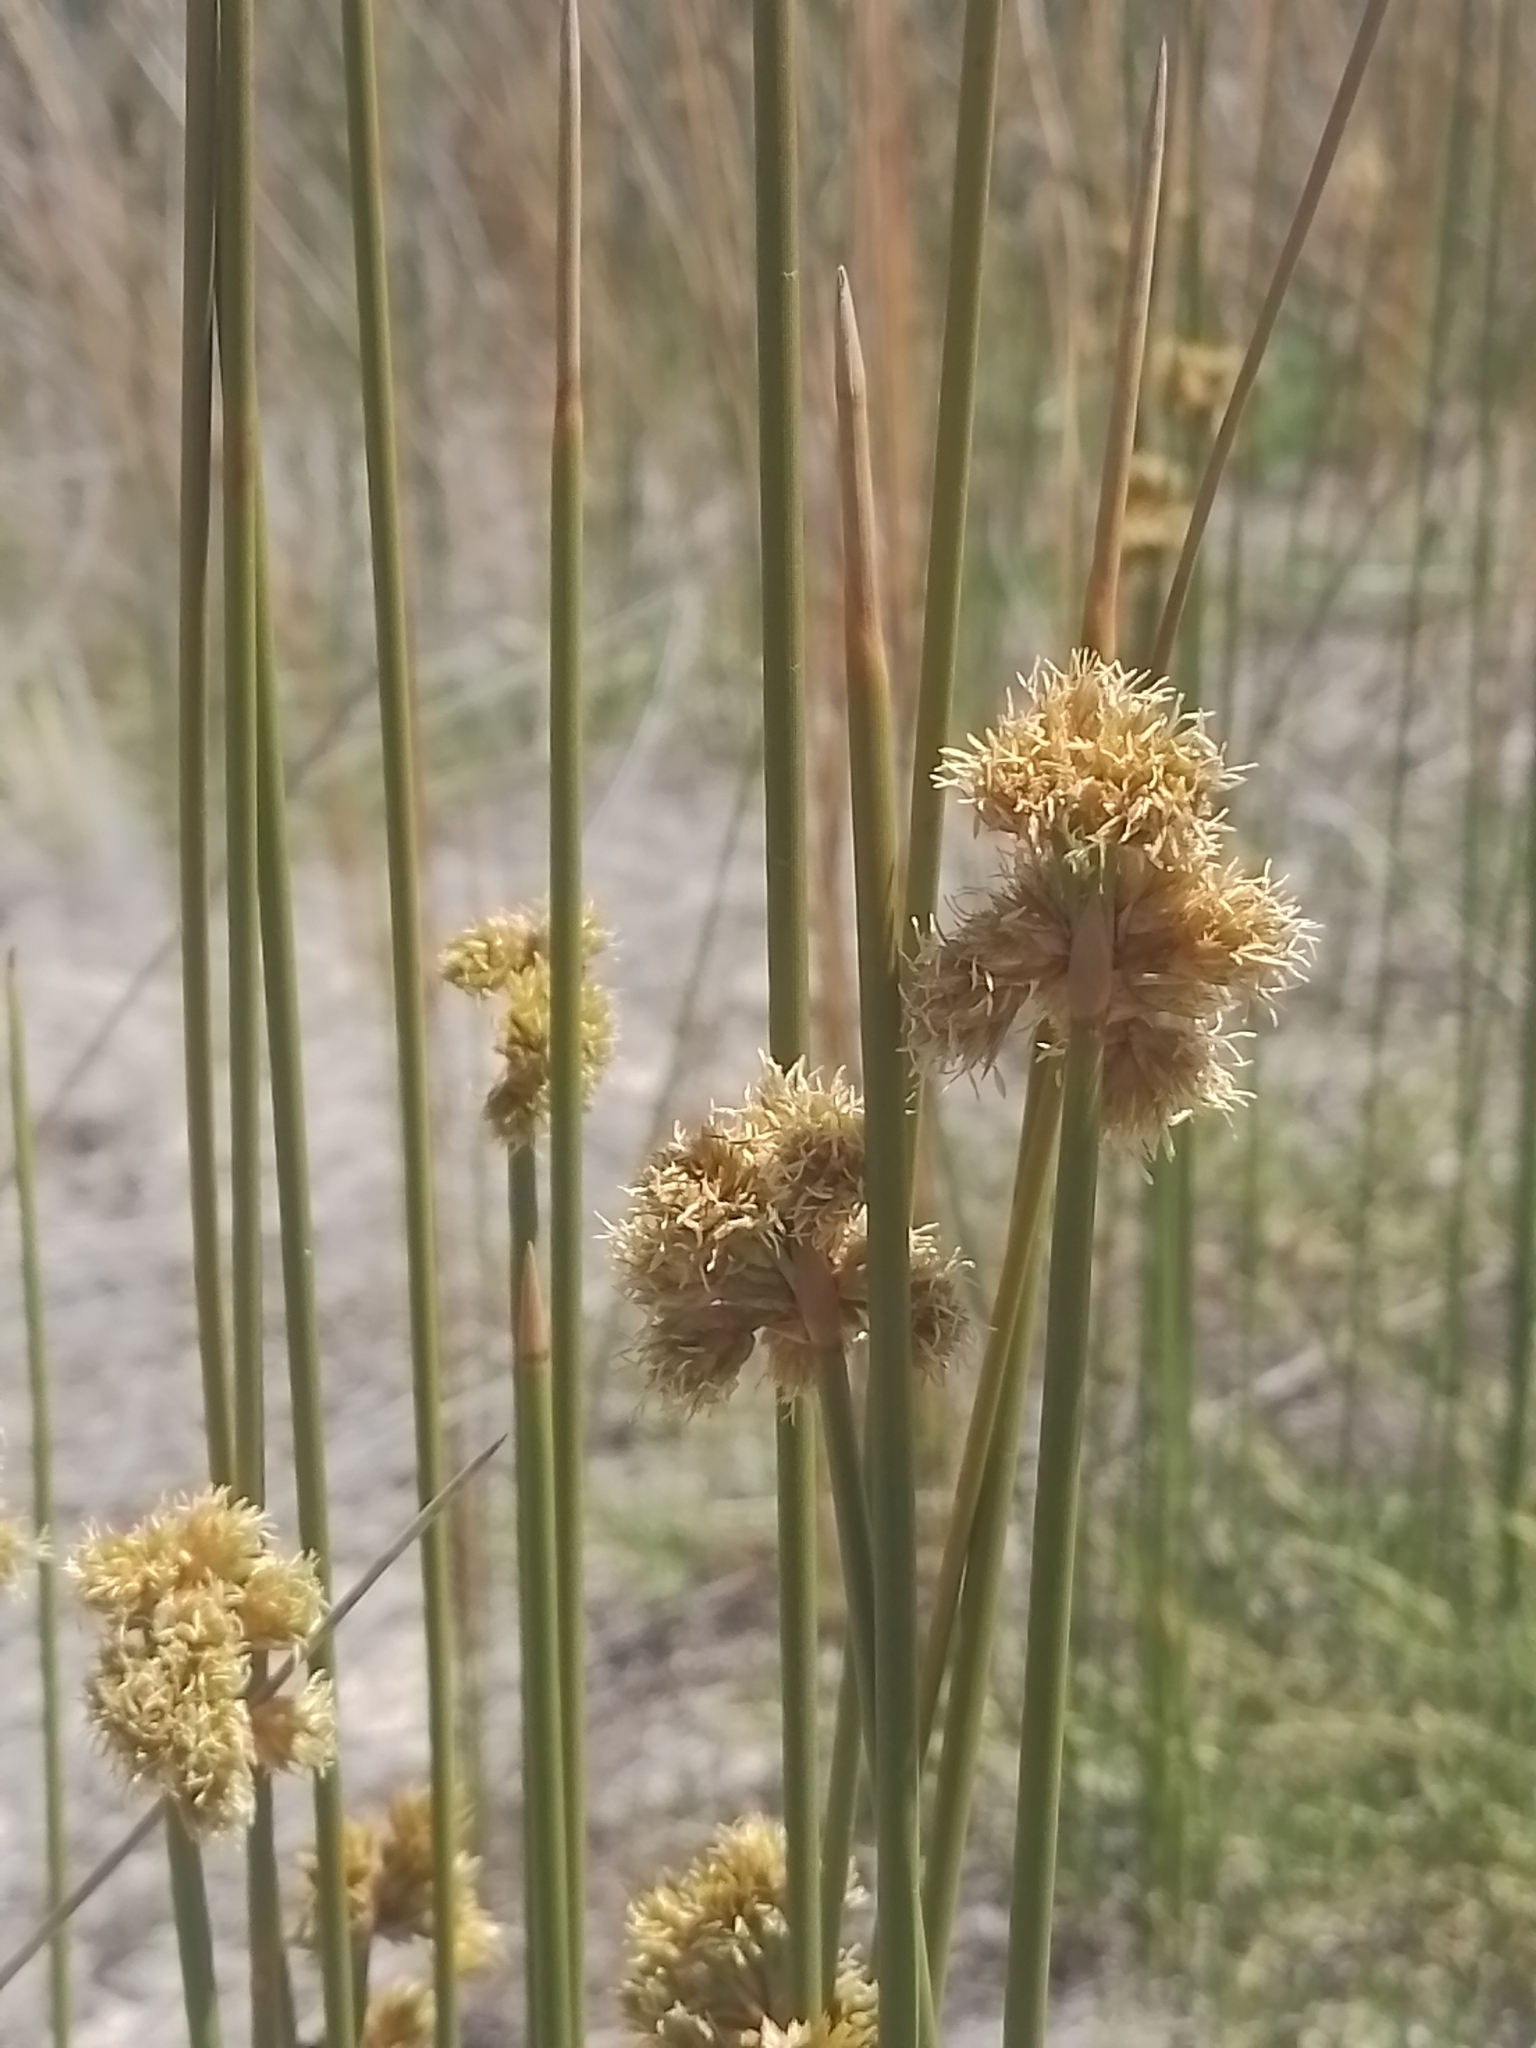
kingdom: Plantae
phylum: Tracheophyta
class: Liliopsida
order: Poales
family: Cyperaceae
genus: Cyperus
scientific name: Cyperus trigynus
